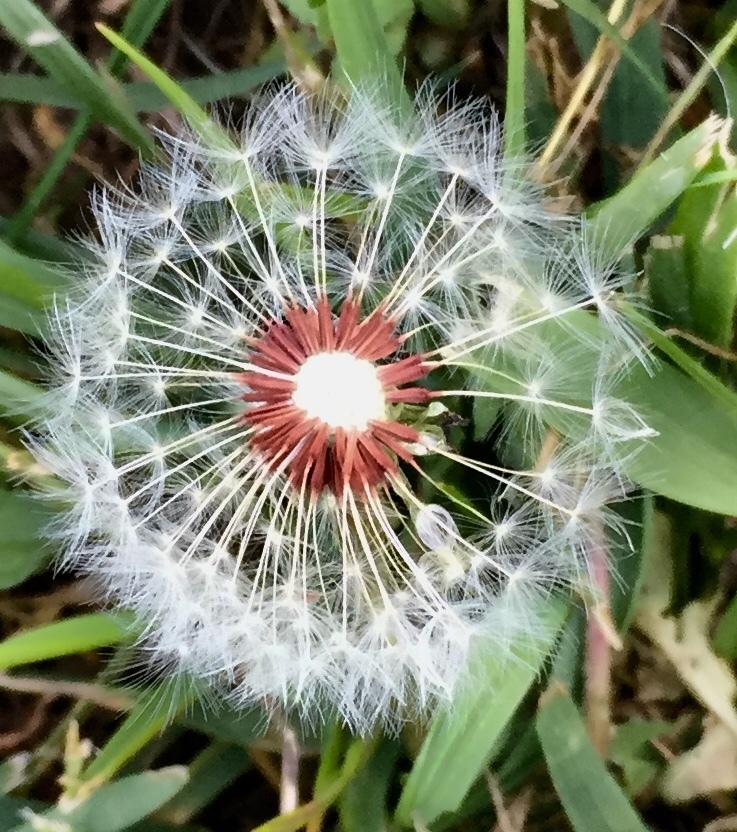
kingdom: Plantae
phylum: Tracheophyta
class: Magnoliopsida
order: Asterales
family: Asteraceae
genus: Taraxacum
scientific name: Taraxacum erythrospermum
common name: Rock dandelion
